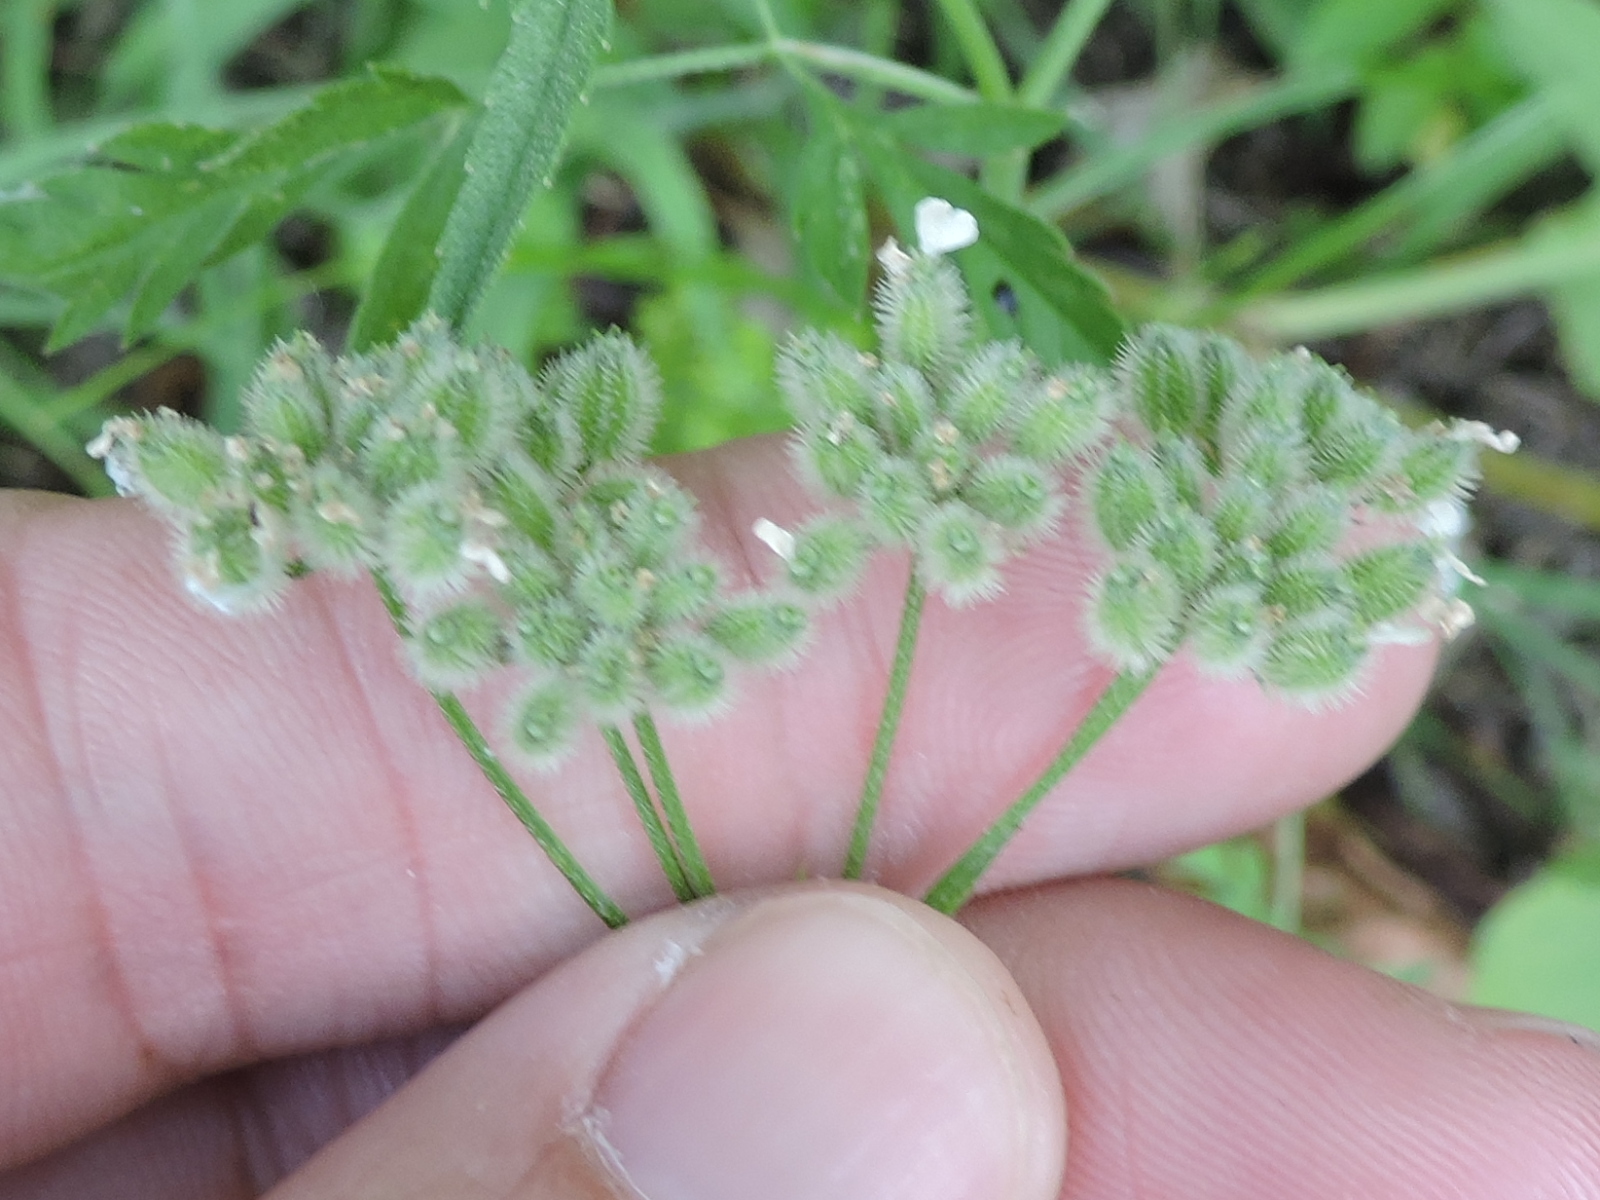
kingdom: Plantae
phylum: Tracheophyta
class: Magnoliopsida
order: Apiales
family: Apiaceae
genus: Torilis
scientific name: Torilis arvensis
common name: Spreading hedge-parsley
